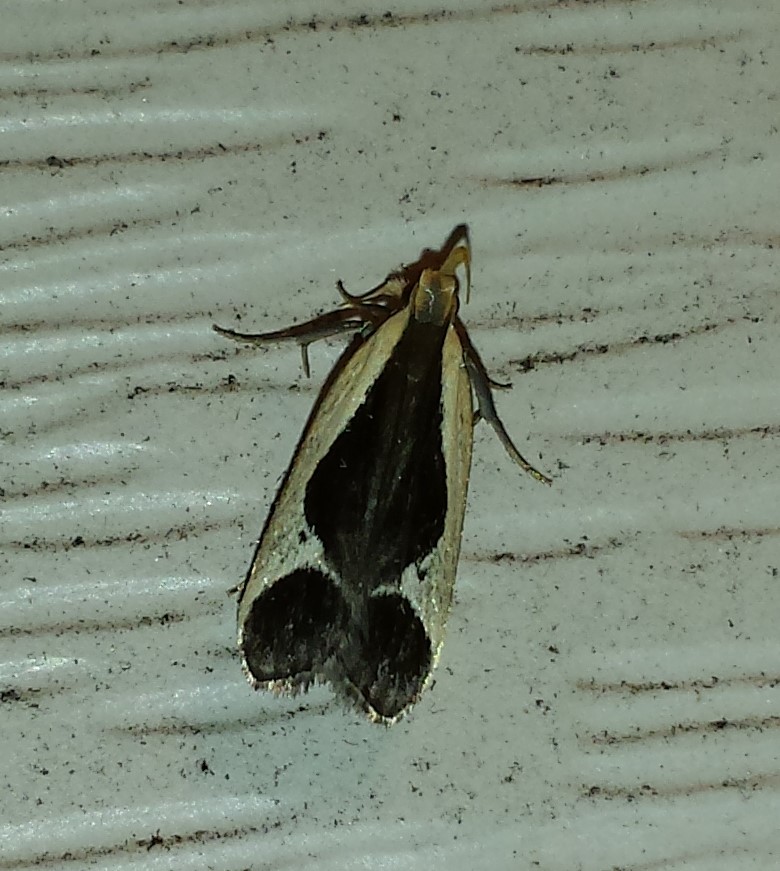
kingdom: Animalia
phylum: Arthropoda
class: Insecta
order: Lepidoptera
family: Gelechiidae
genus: Dichomeris
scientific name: Dichomeris flavocostella
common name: Cream-edged dichomeris moth
